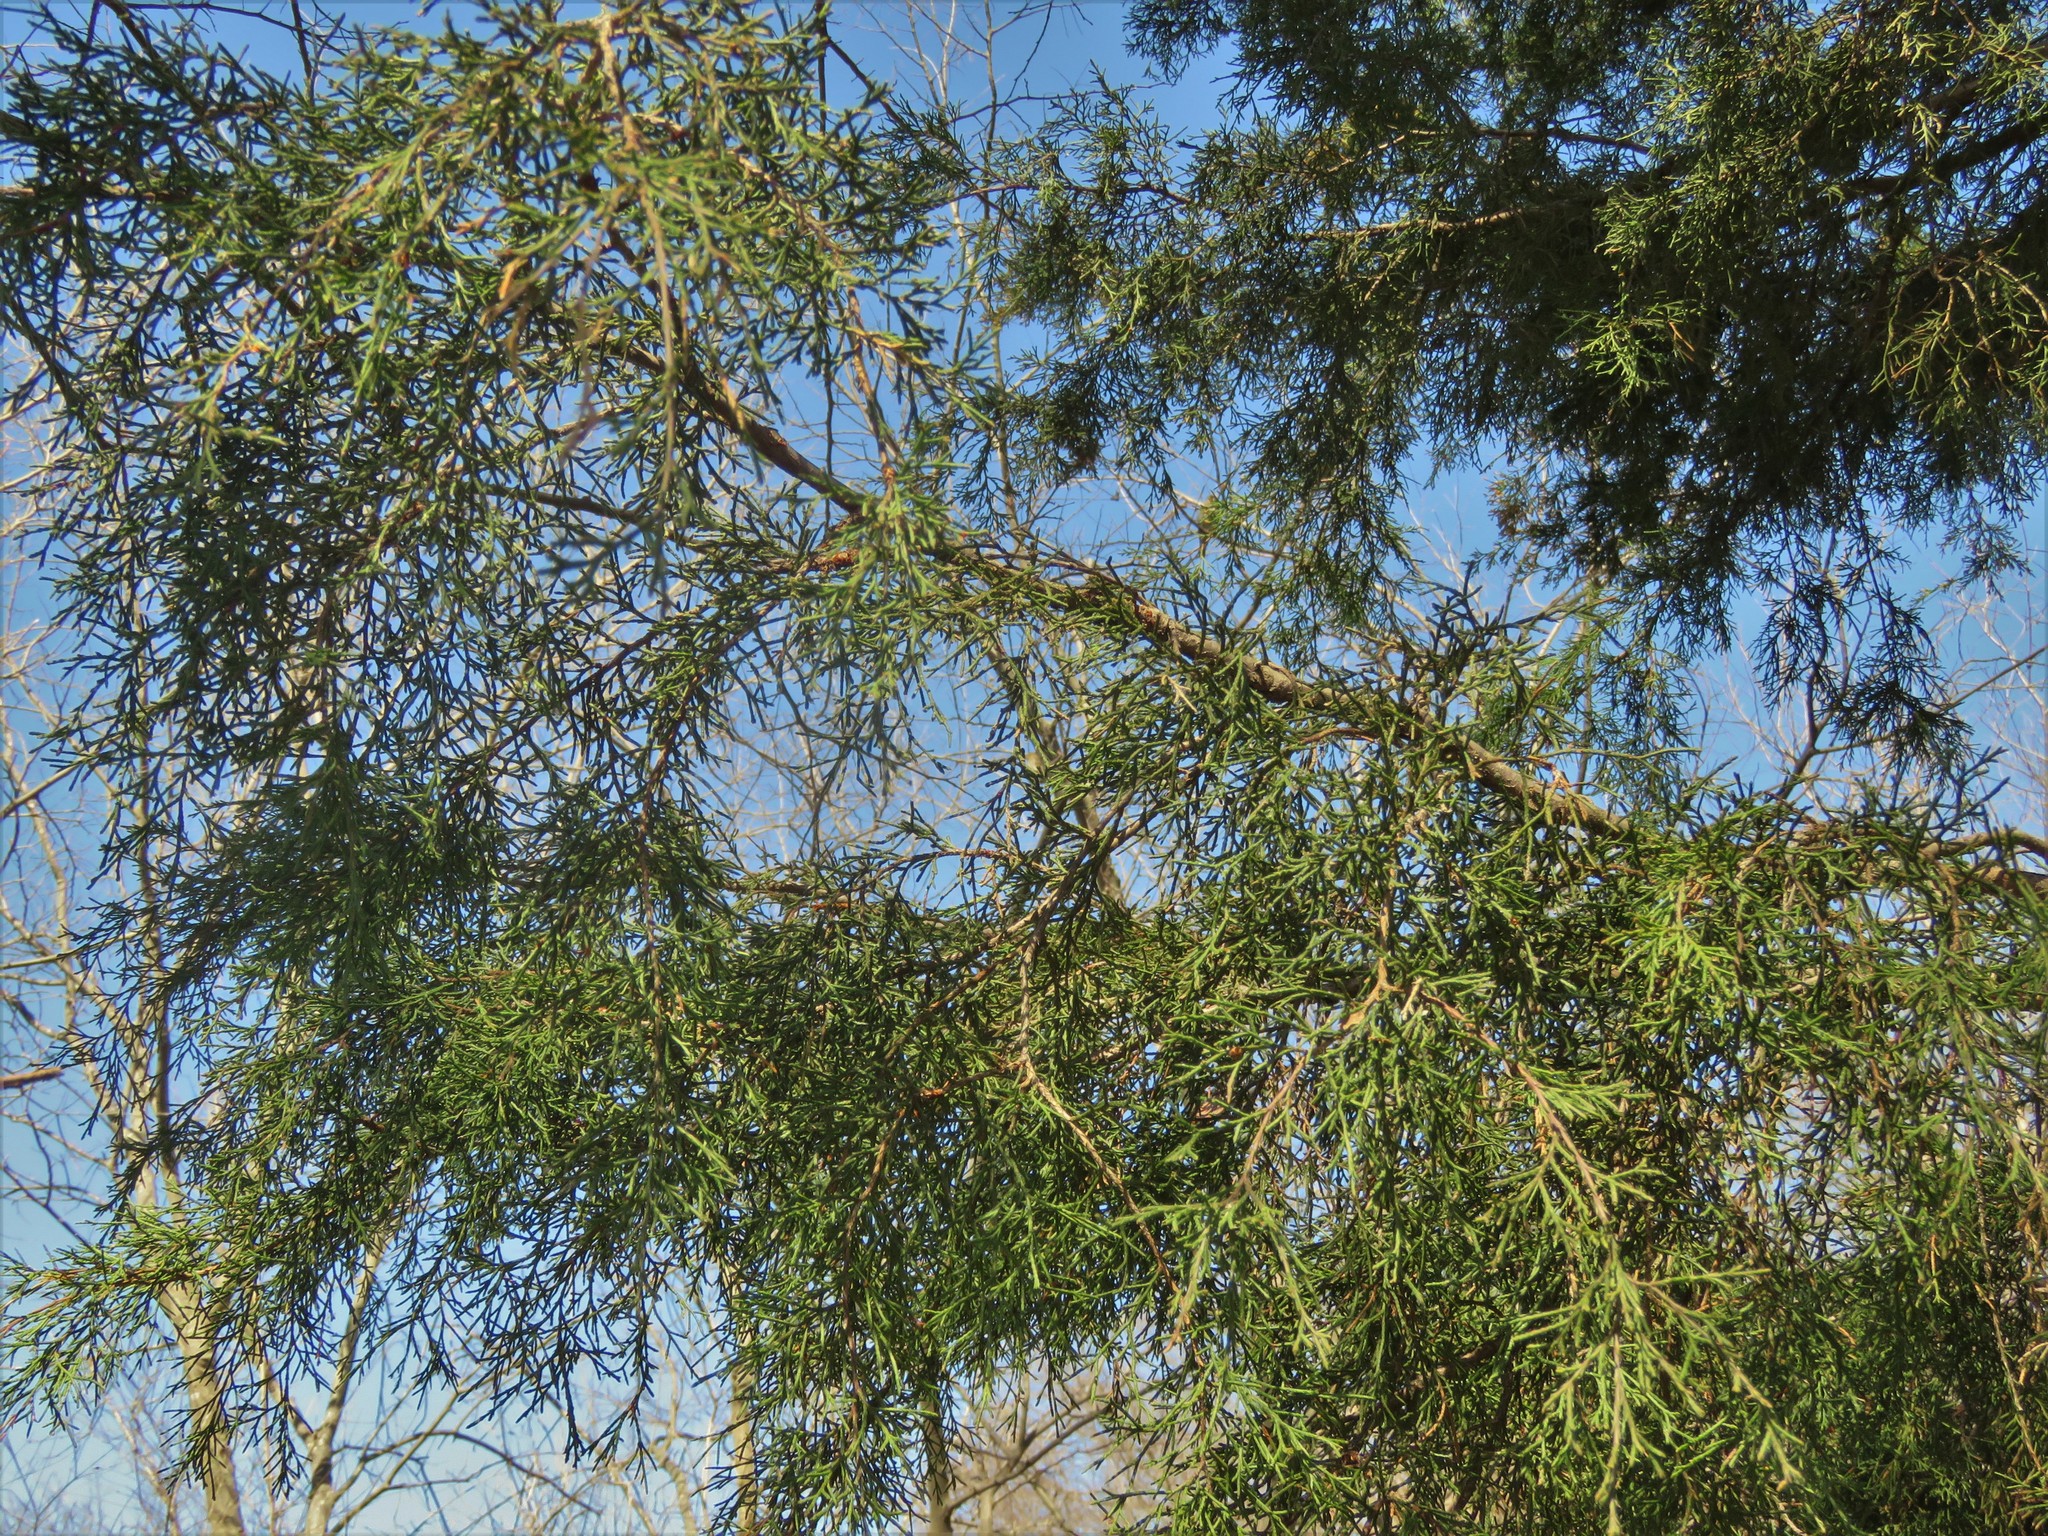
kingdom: Plantae
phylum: Tracheophyta
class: Pinopsida
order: Pinales
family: Cupressaceae
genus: Juniperus
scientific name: Juniperus virginiana
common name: Red juniper
